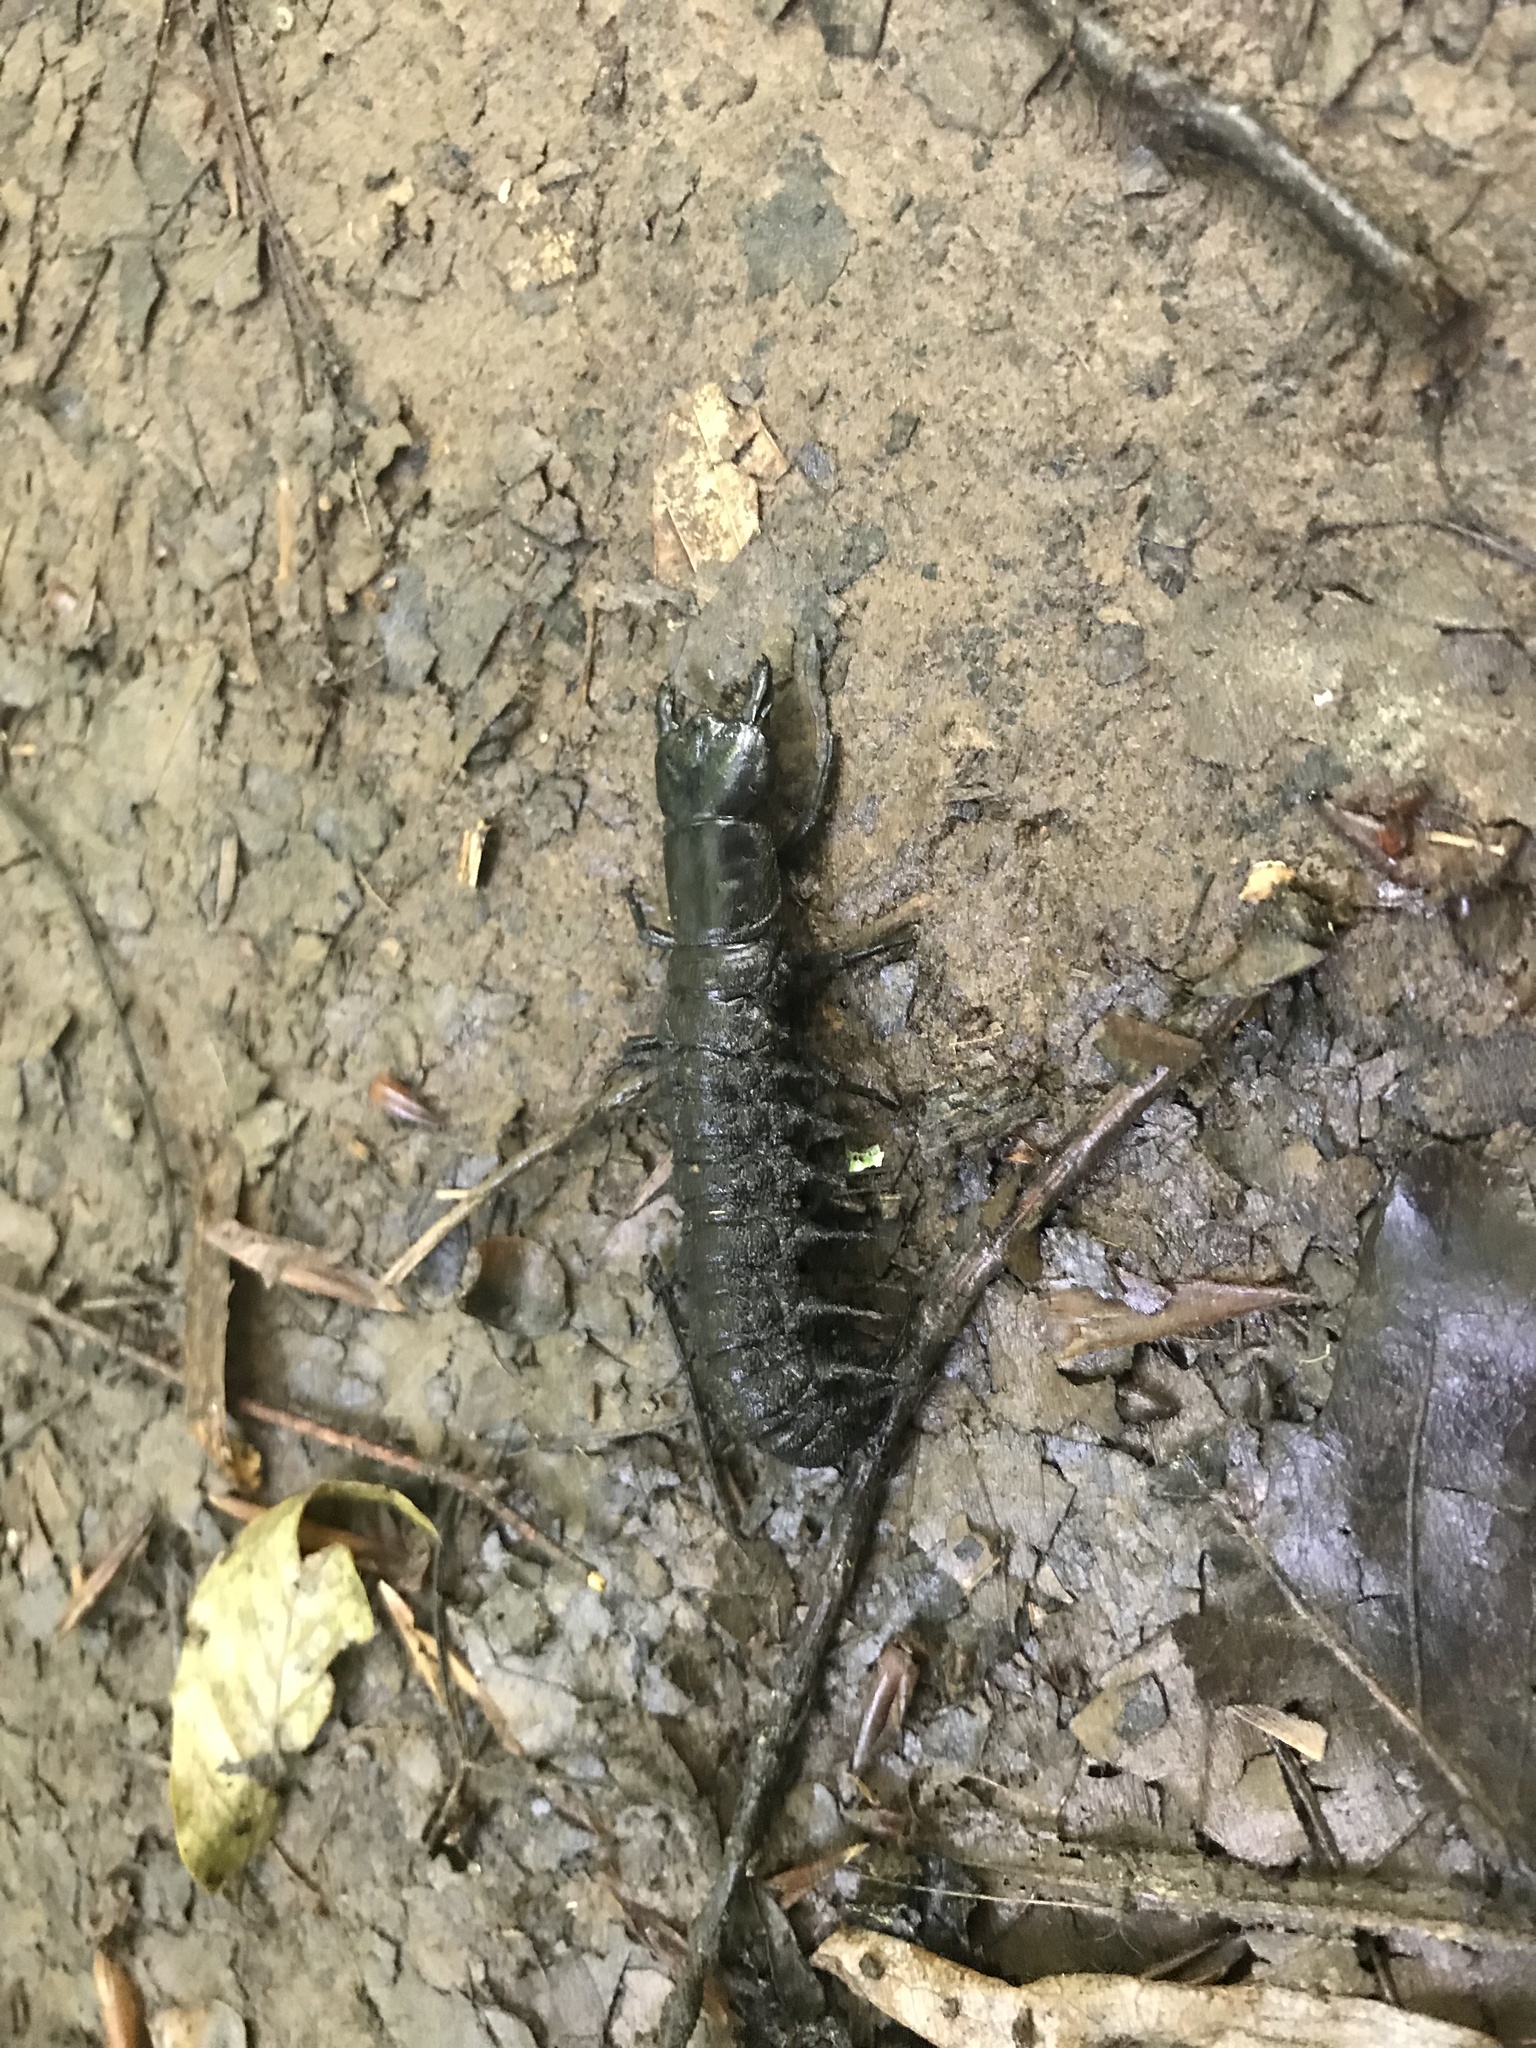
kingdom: Animalia
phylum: Arthropoda
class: Insecta
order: Megaloptera
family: Corydalidae
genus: Corydalus
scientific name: Corydalus cornutus
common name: Dobsonfly
